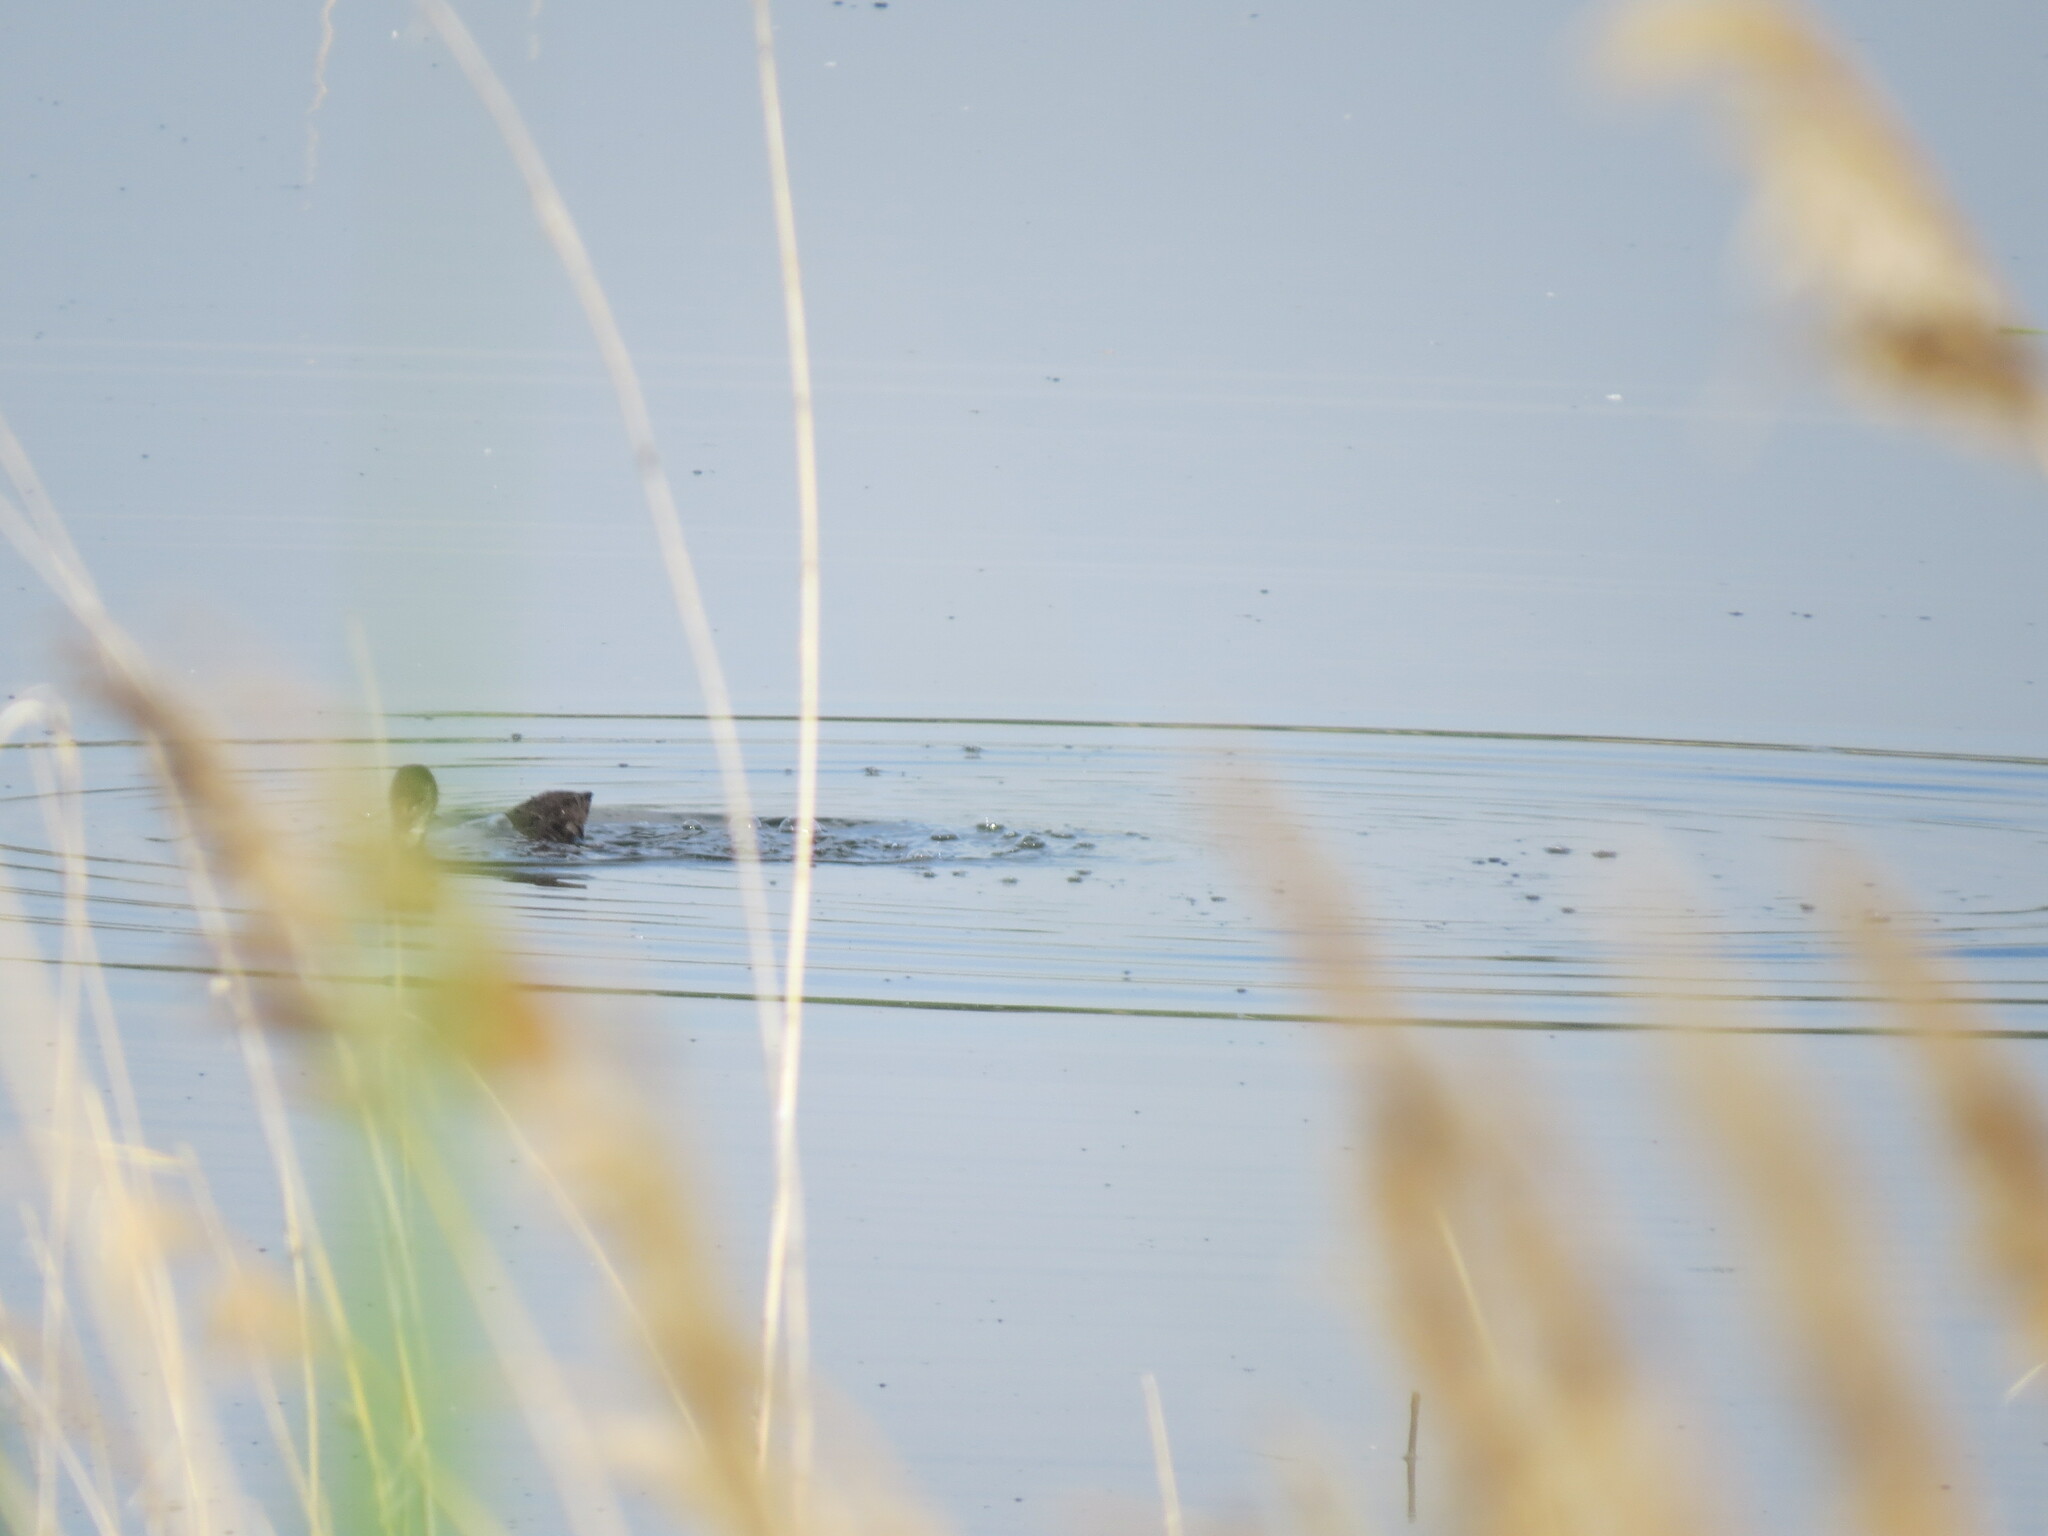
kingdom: Animalia
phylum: Chordata
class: Aves
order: Gruiformes
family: Rallidae
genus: Fulica
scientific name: Fulica atra
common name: Eurasian coot
